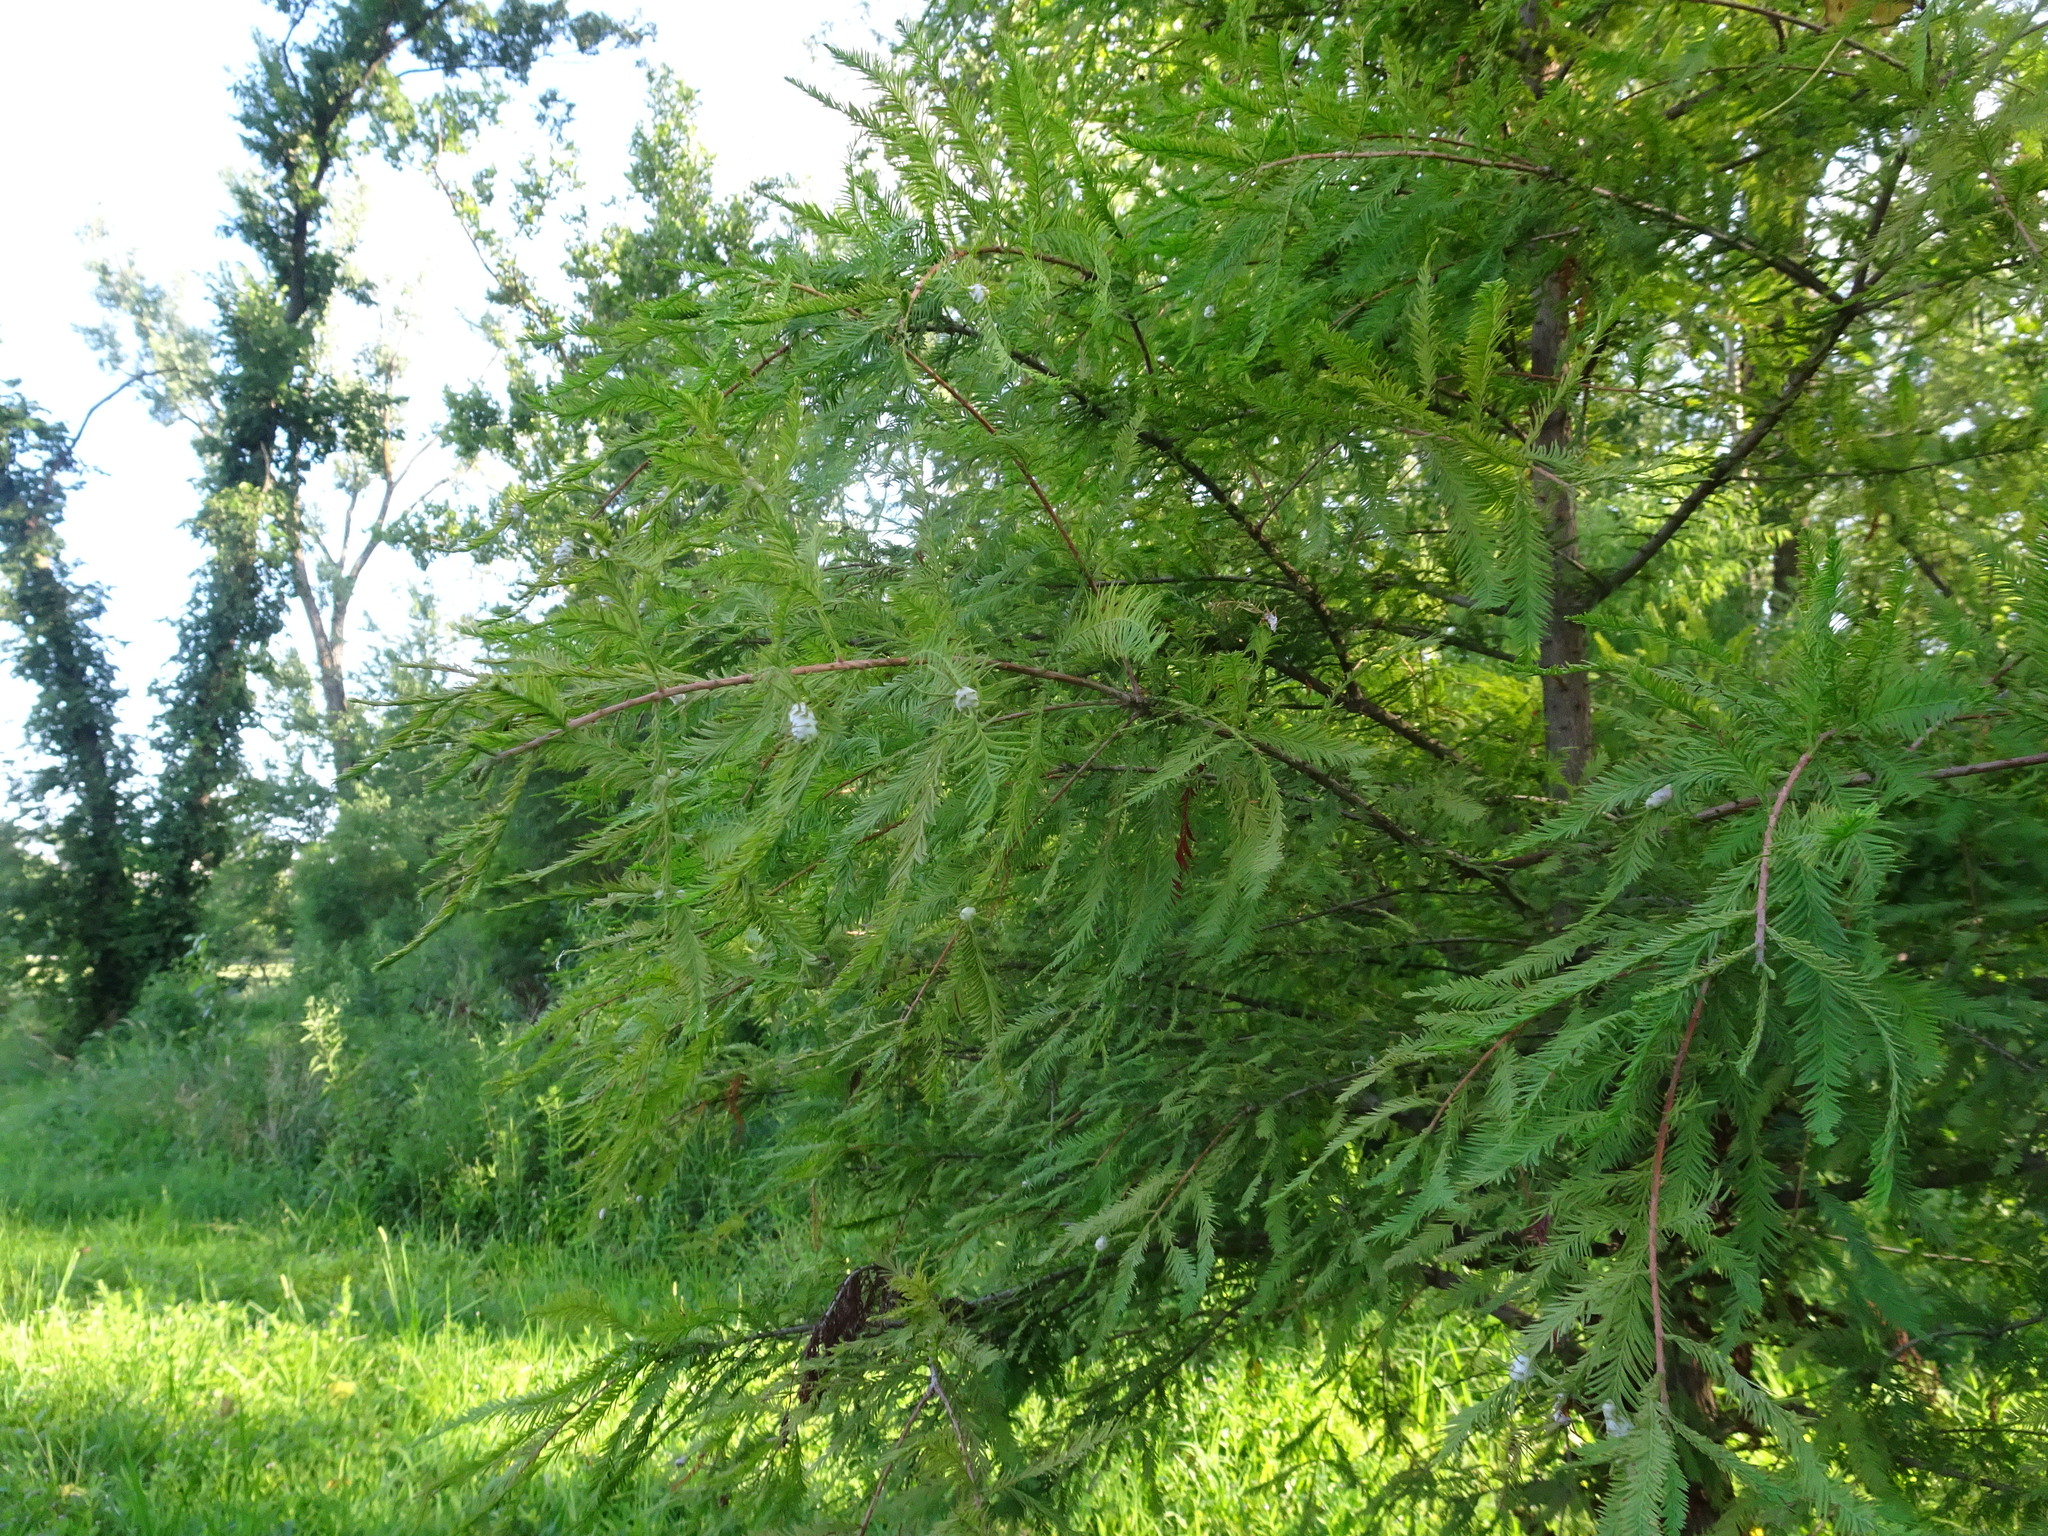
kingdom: Animalia
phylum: Arthropoda
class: Insecta
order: Diptera
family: Cecidomyiidae
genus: Taxodiomyia
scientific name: Taxodiomyia cupressiananassa
